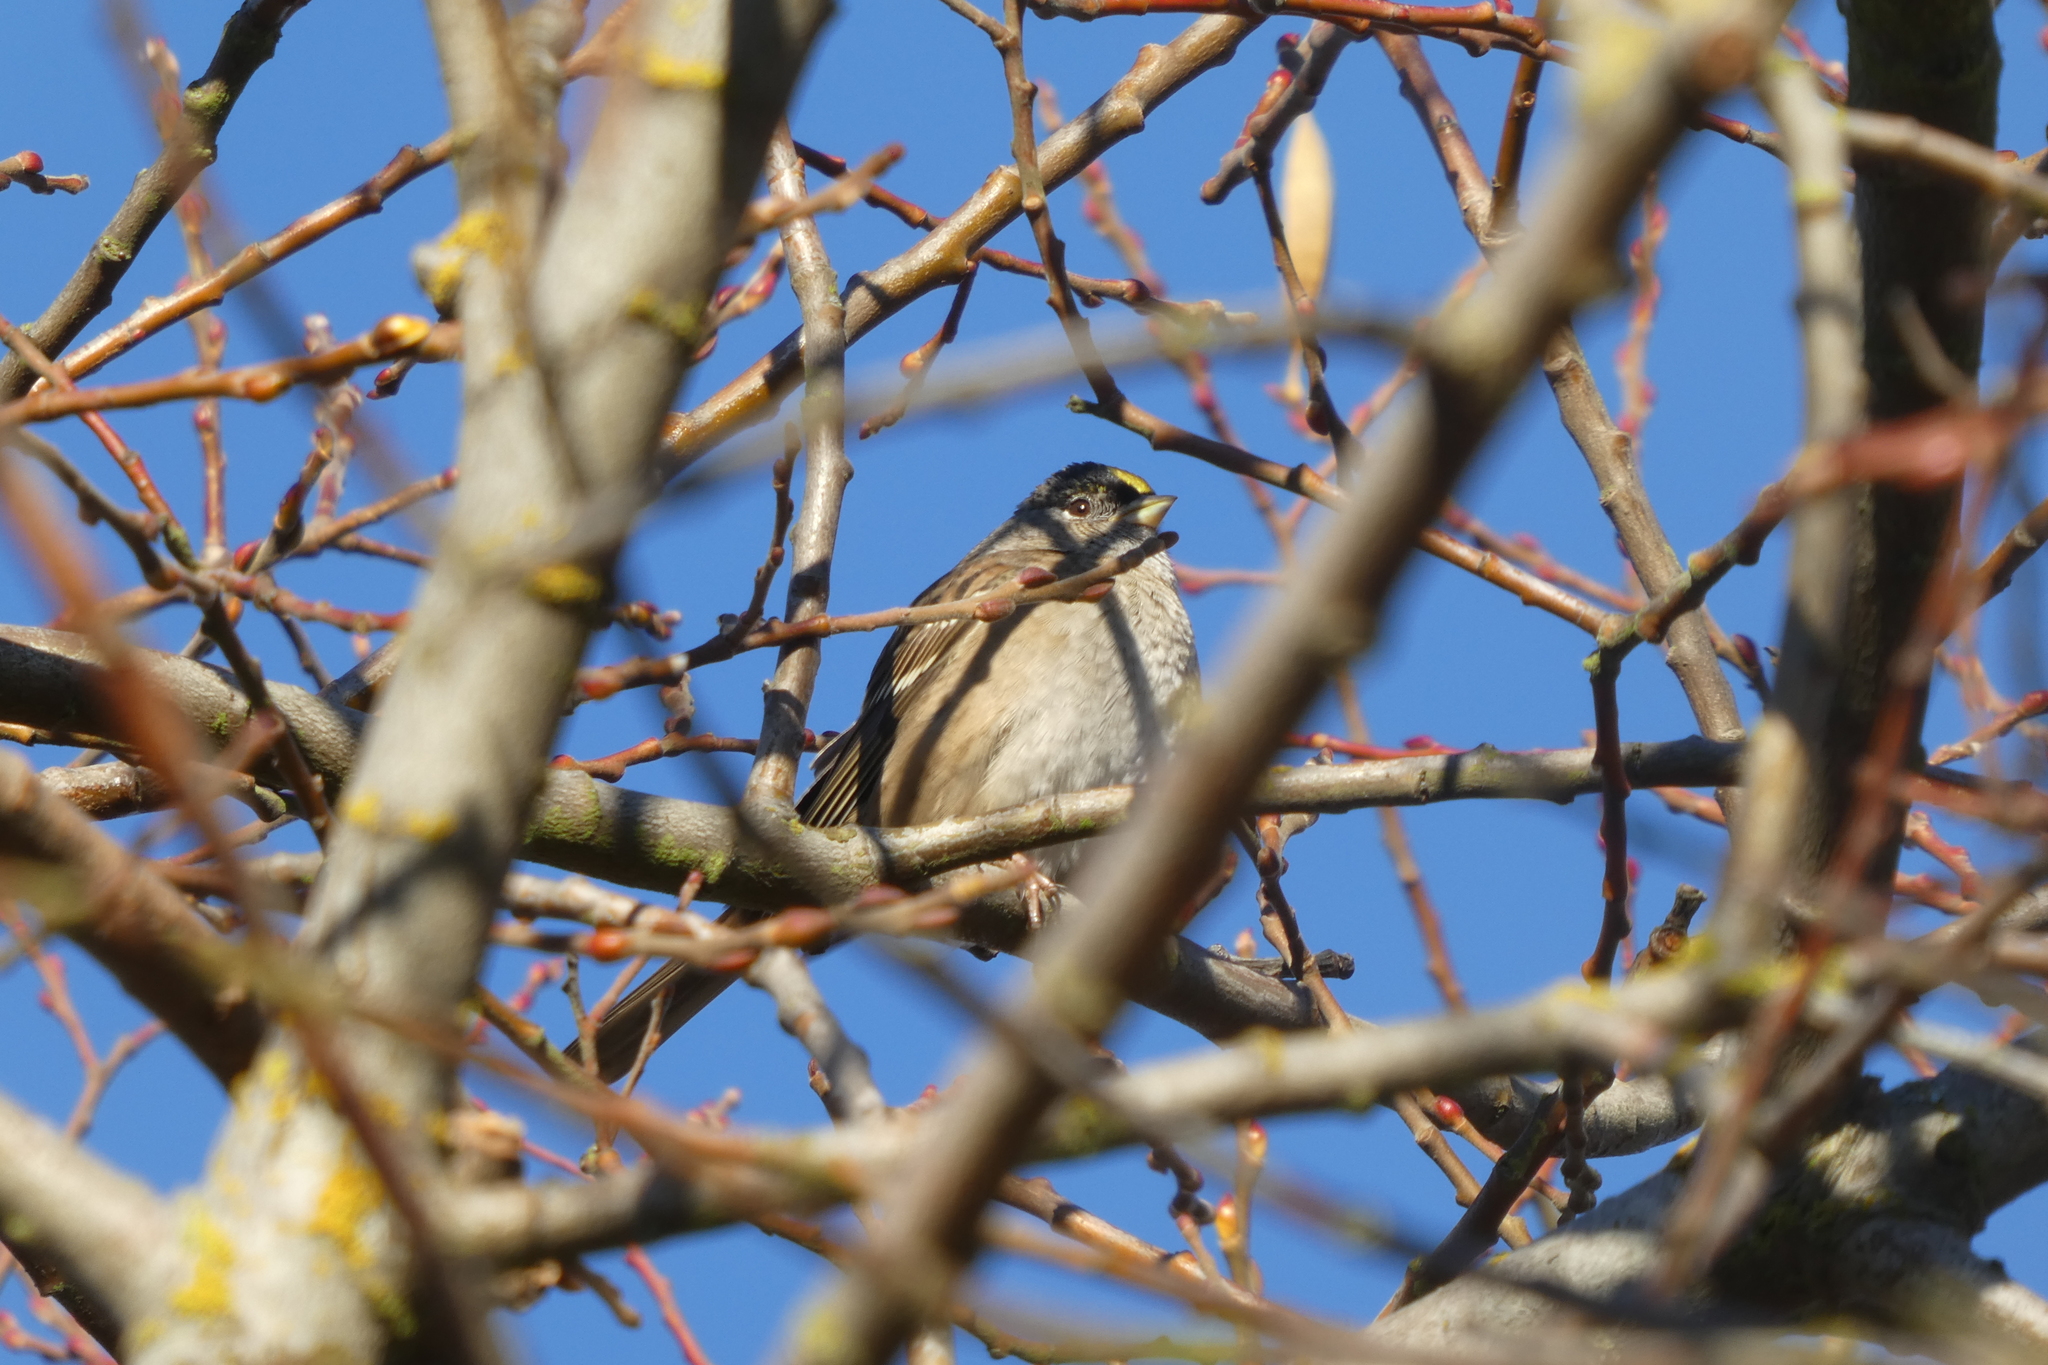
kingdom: Animalia
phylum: Chordata
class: Aves
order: Passeriformes
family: Passerellidae
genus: Zonotrichia
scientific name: Zonotrichia atricapilla
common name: Golden-crowned sparrow
